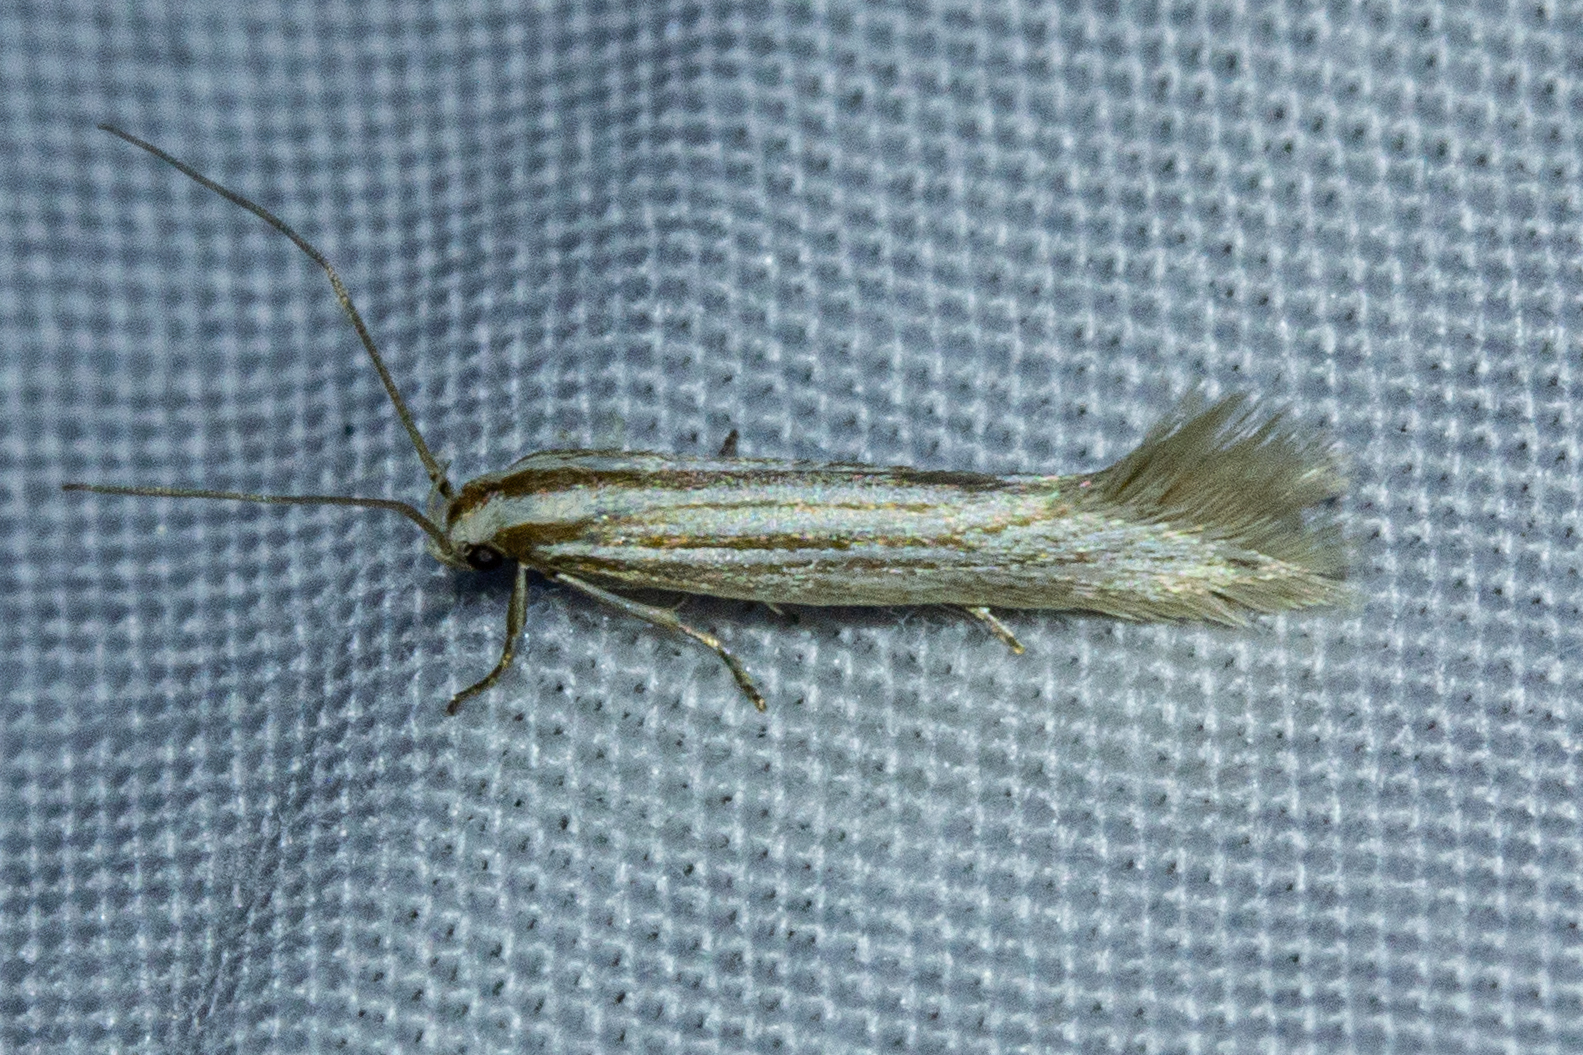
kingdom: Animalia
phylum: Arthropoda
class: Insecta
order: Lepidoptera
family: Elachistidae
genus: Elachista
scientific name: Elachista thallophora
